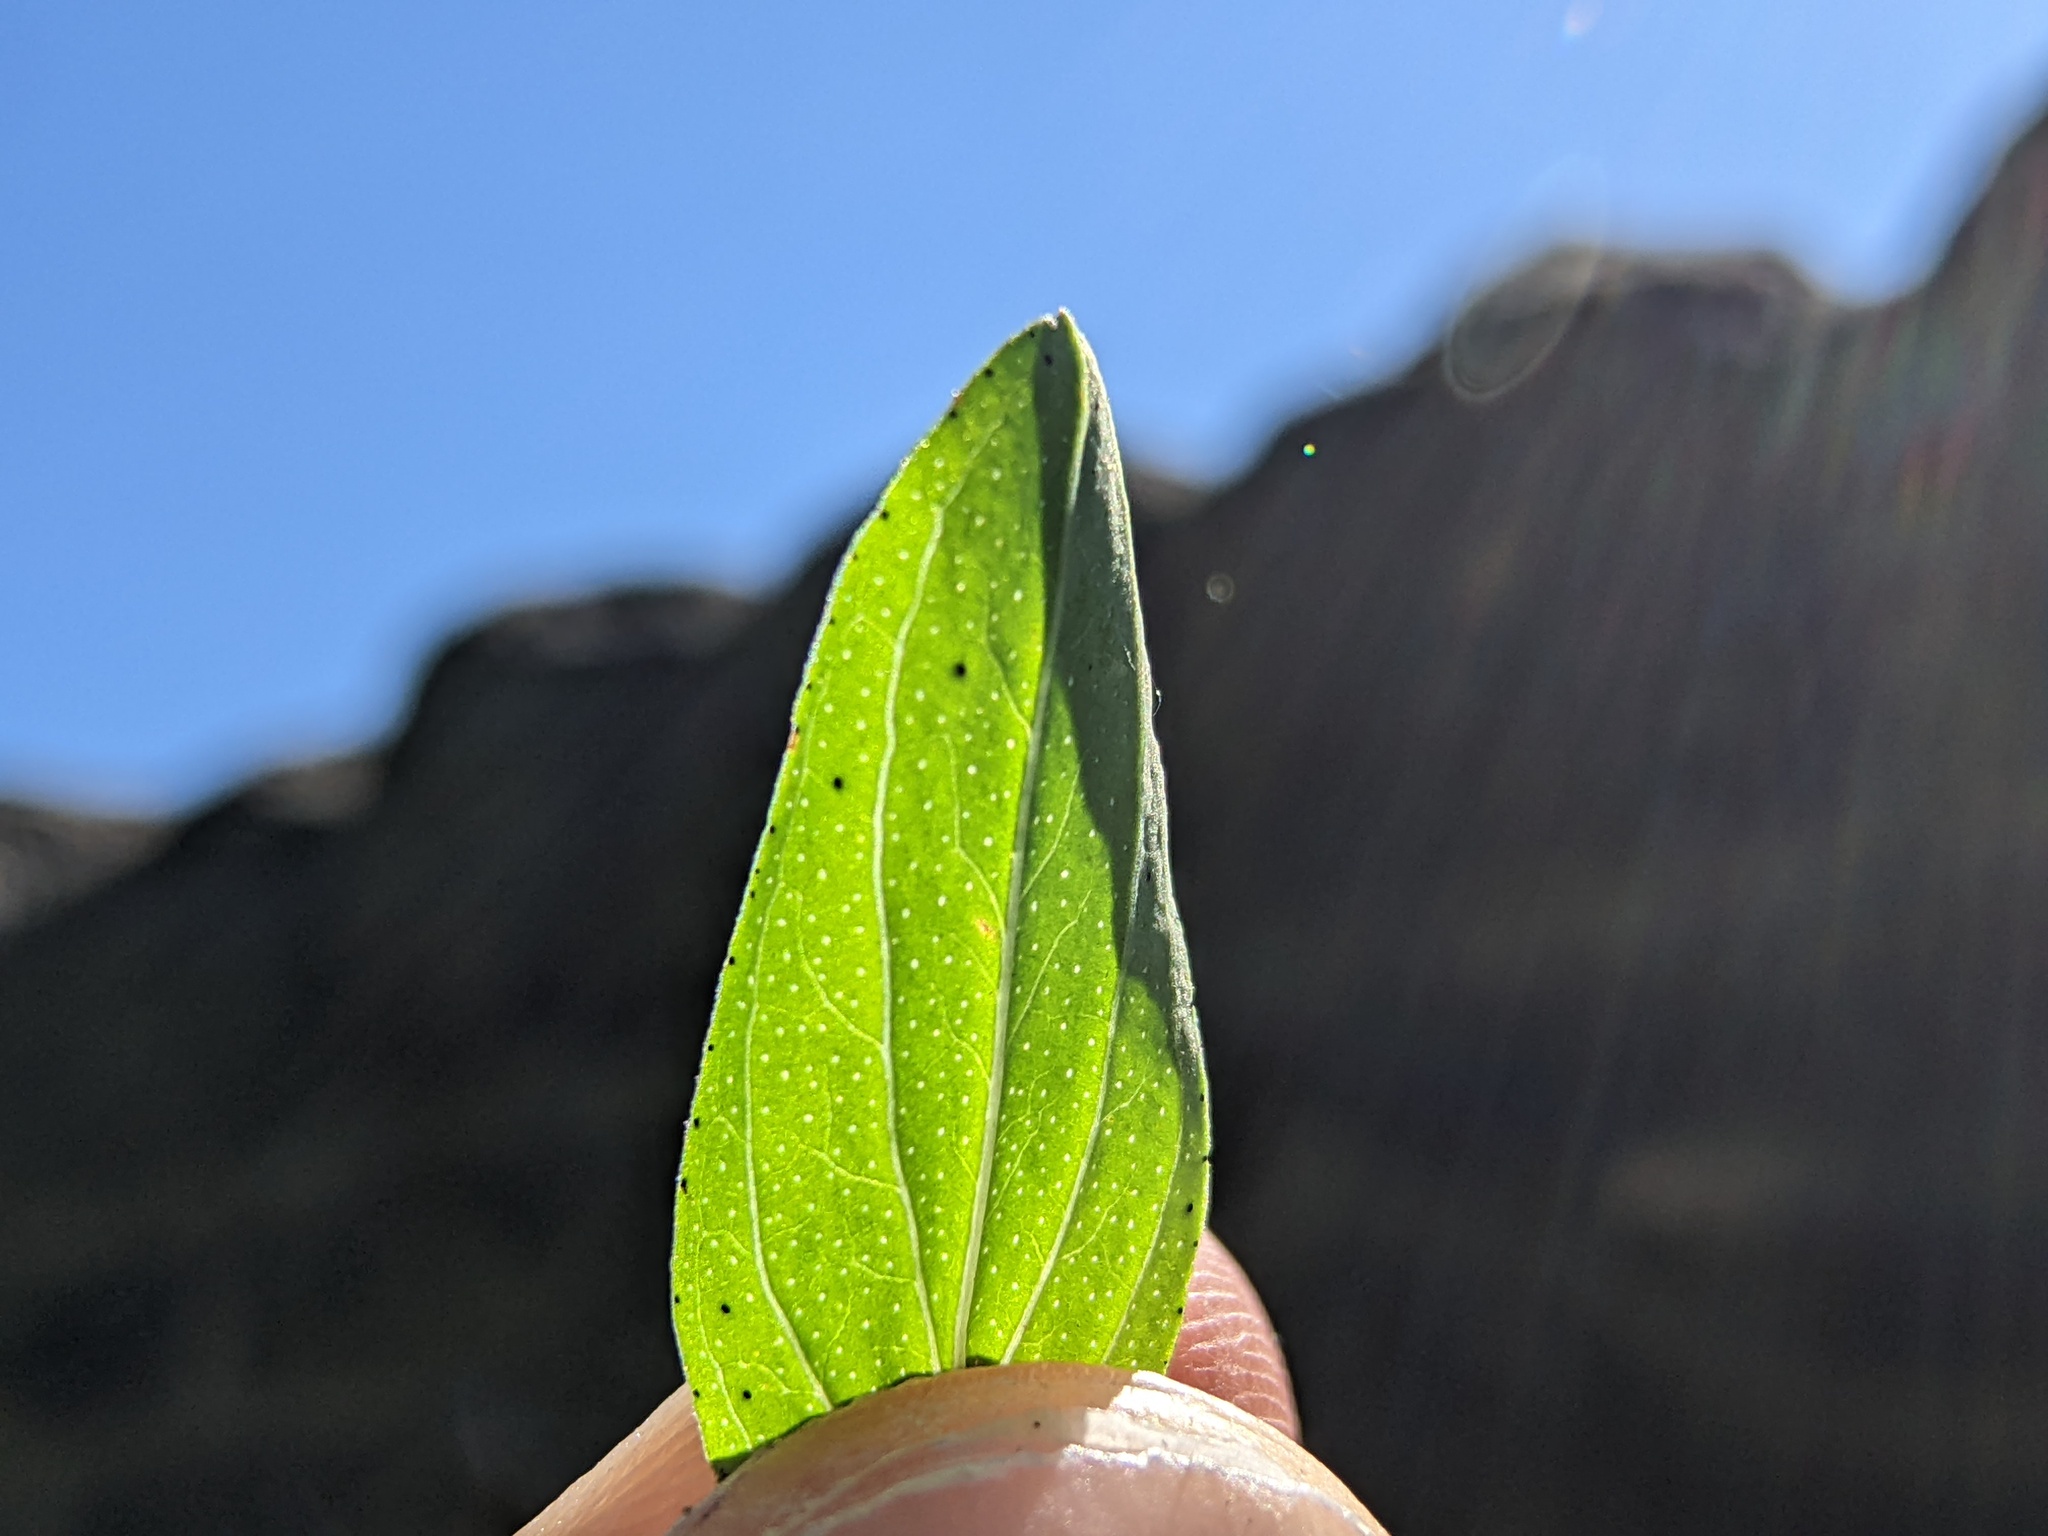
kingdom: Plantae
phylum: Tracheophyta
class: Magnoliopsida
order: Malpighiales
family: Hypericaceae
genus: Hypericum
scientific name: Hypericum perforatum
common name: Common st. johnswort
